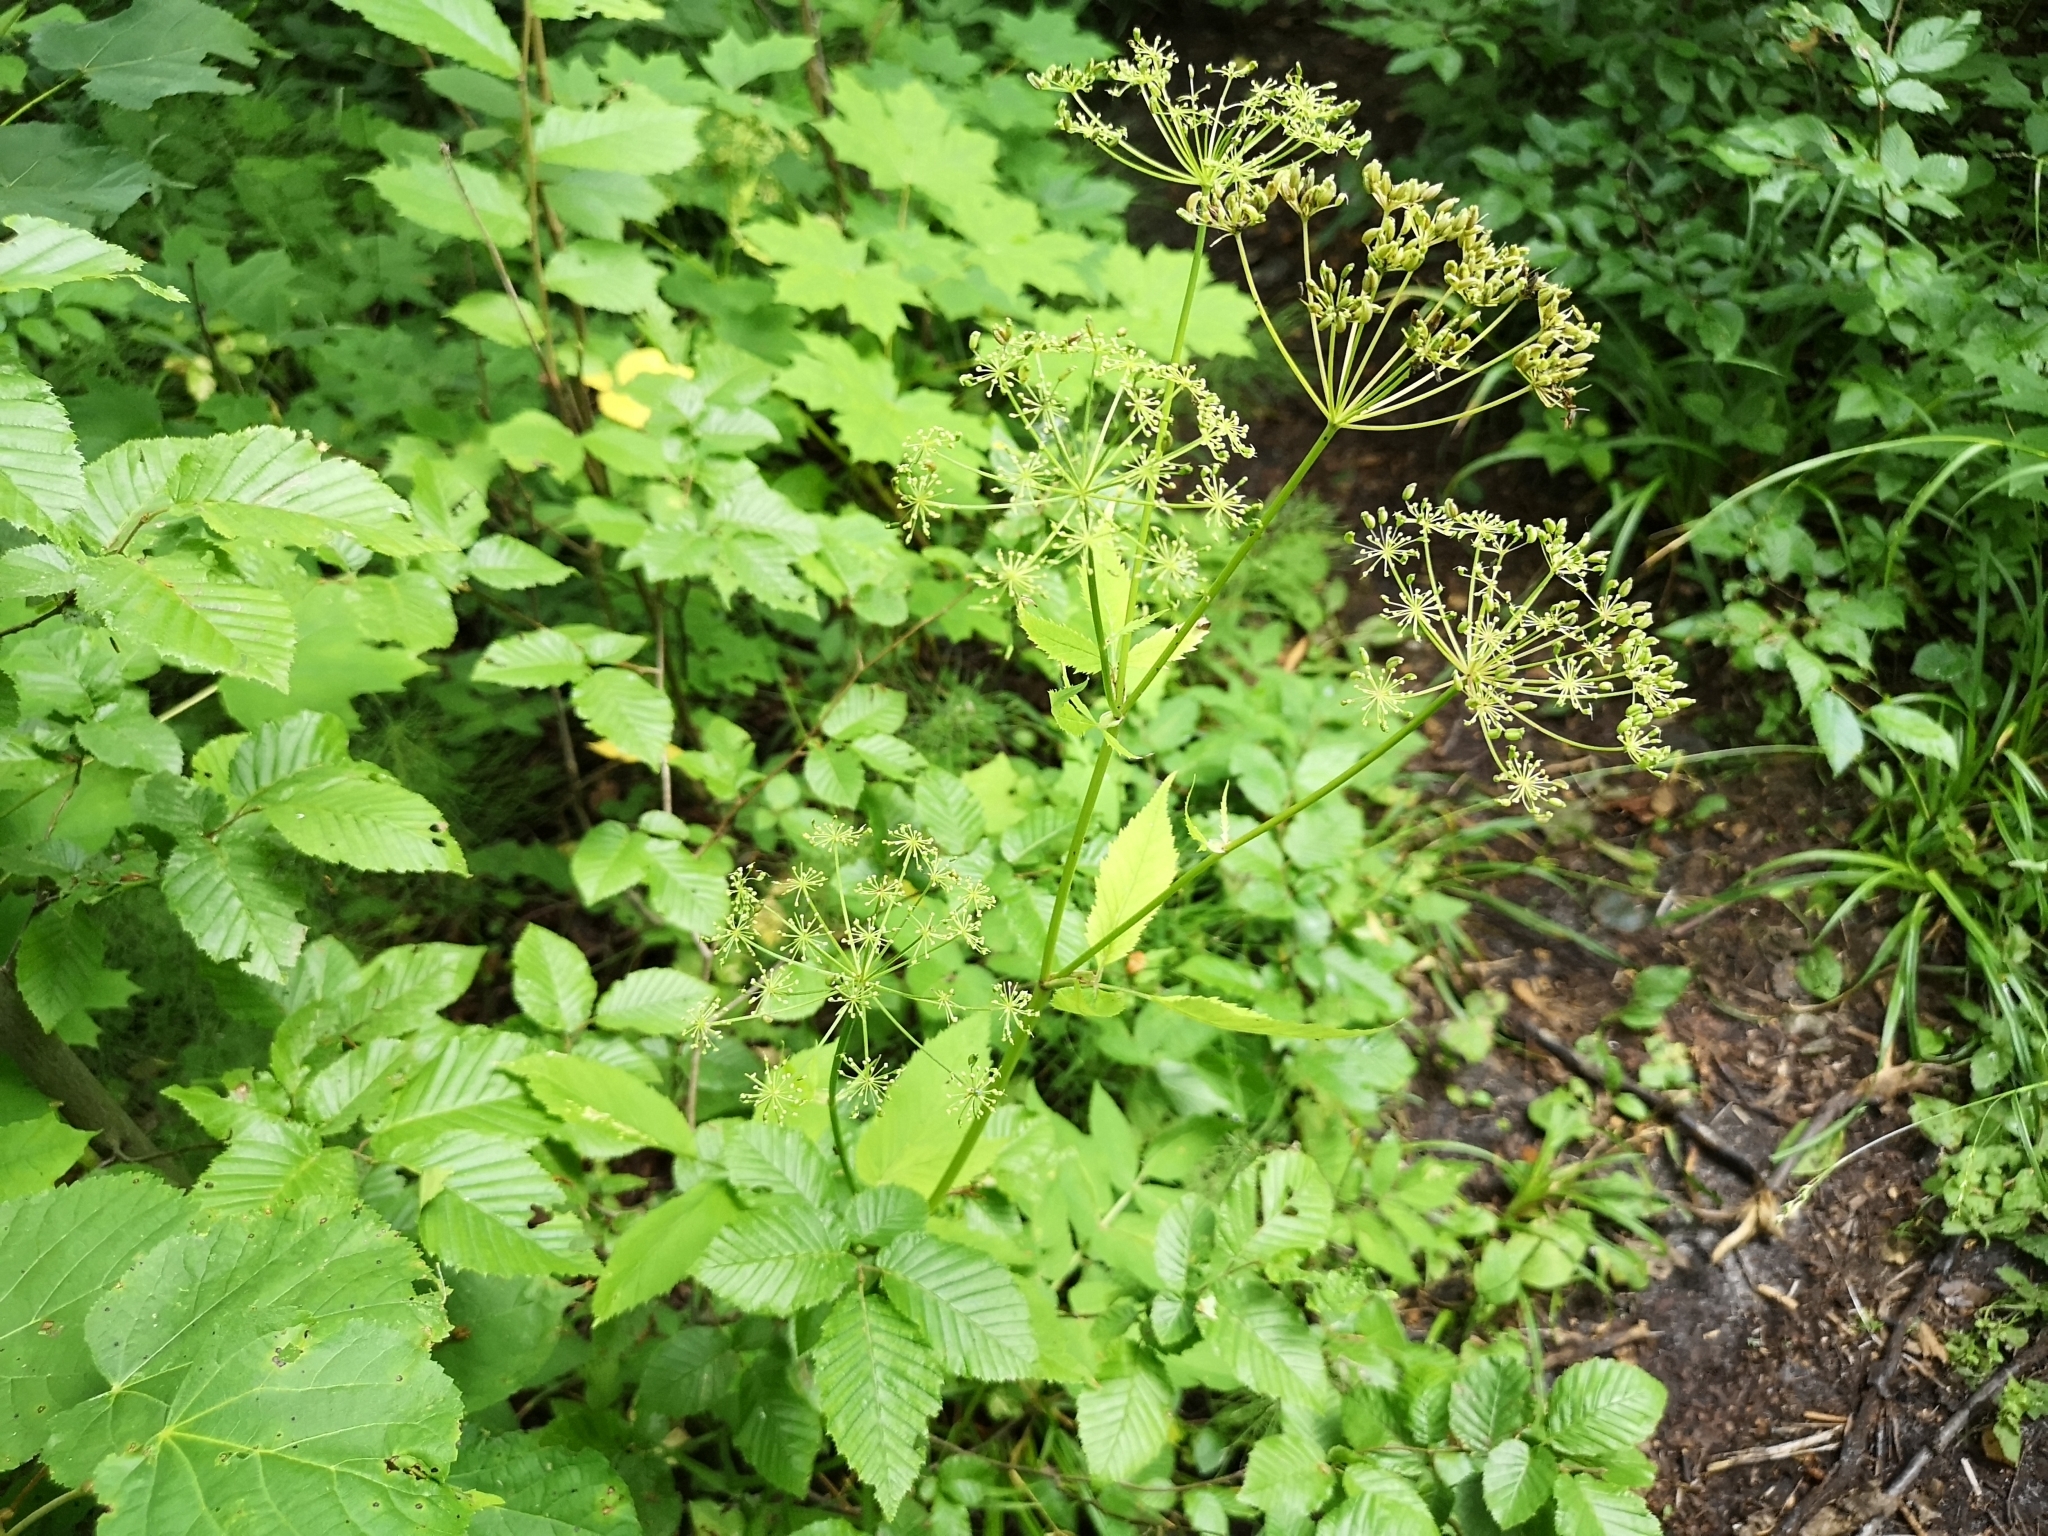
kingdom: Plantae
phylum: Tracheophyta
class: Magnoliopsida
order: Apiales
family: Apiaceae
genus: Aegopodium
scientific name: Aegopodium podagraria
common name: Ground-elder
